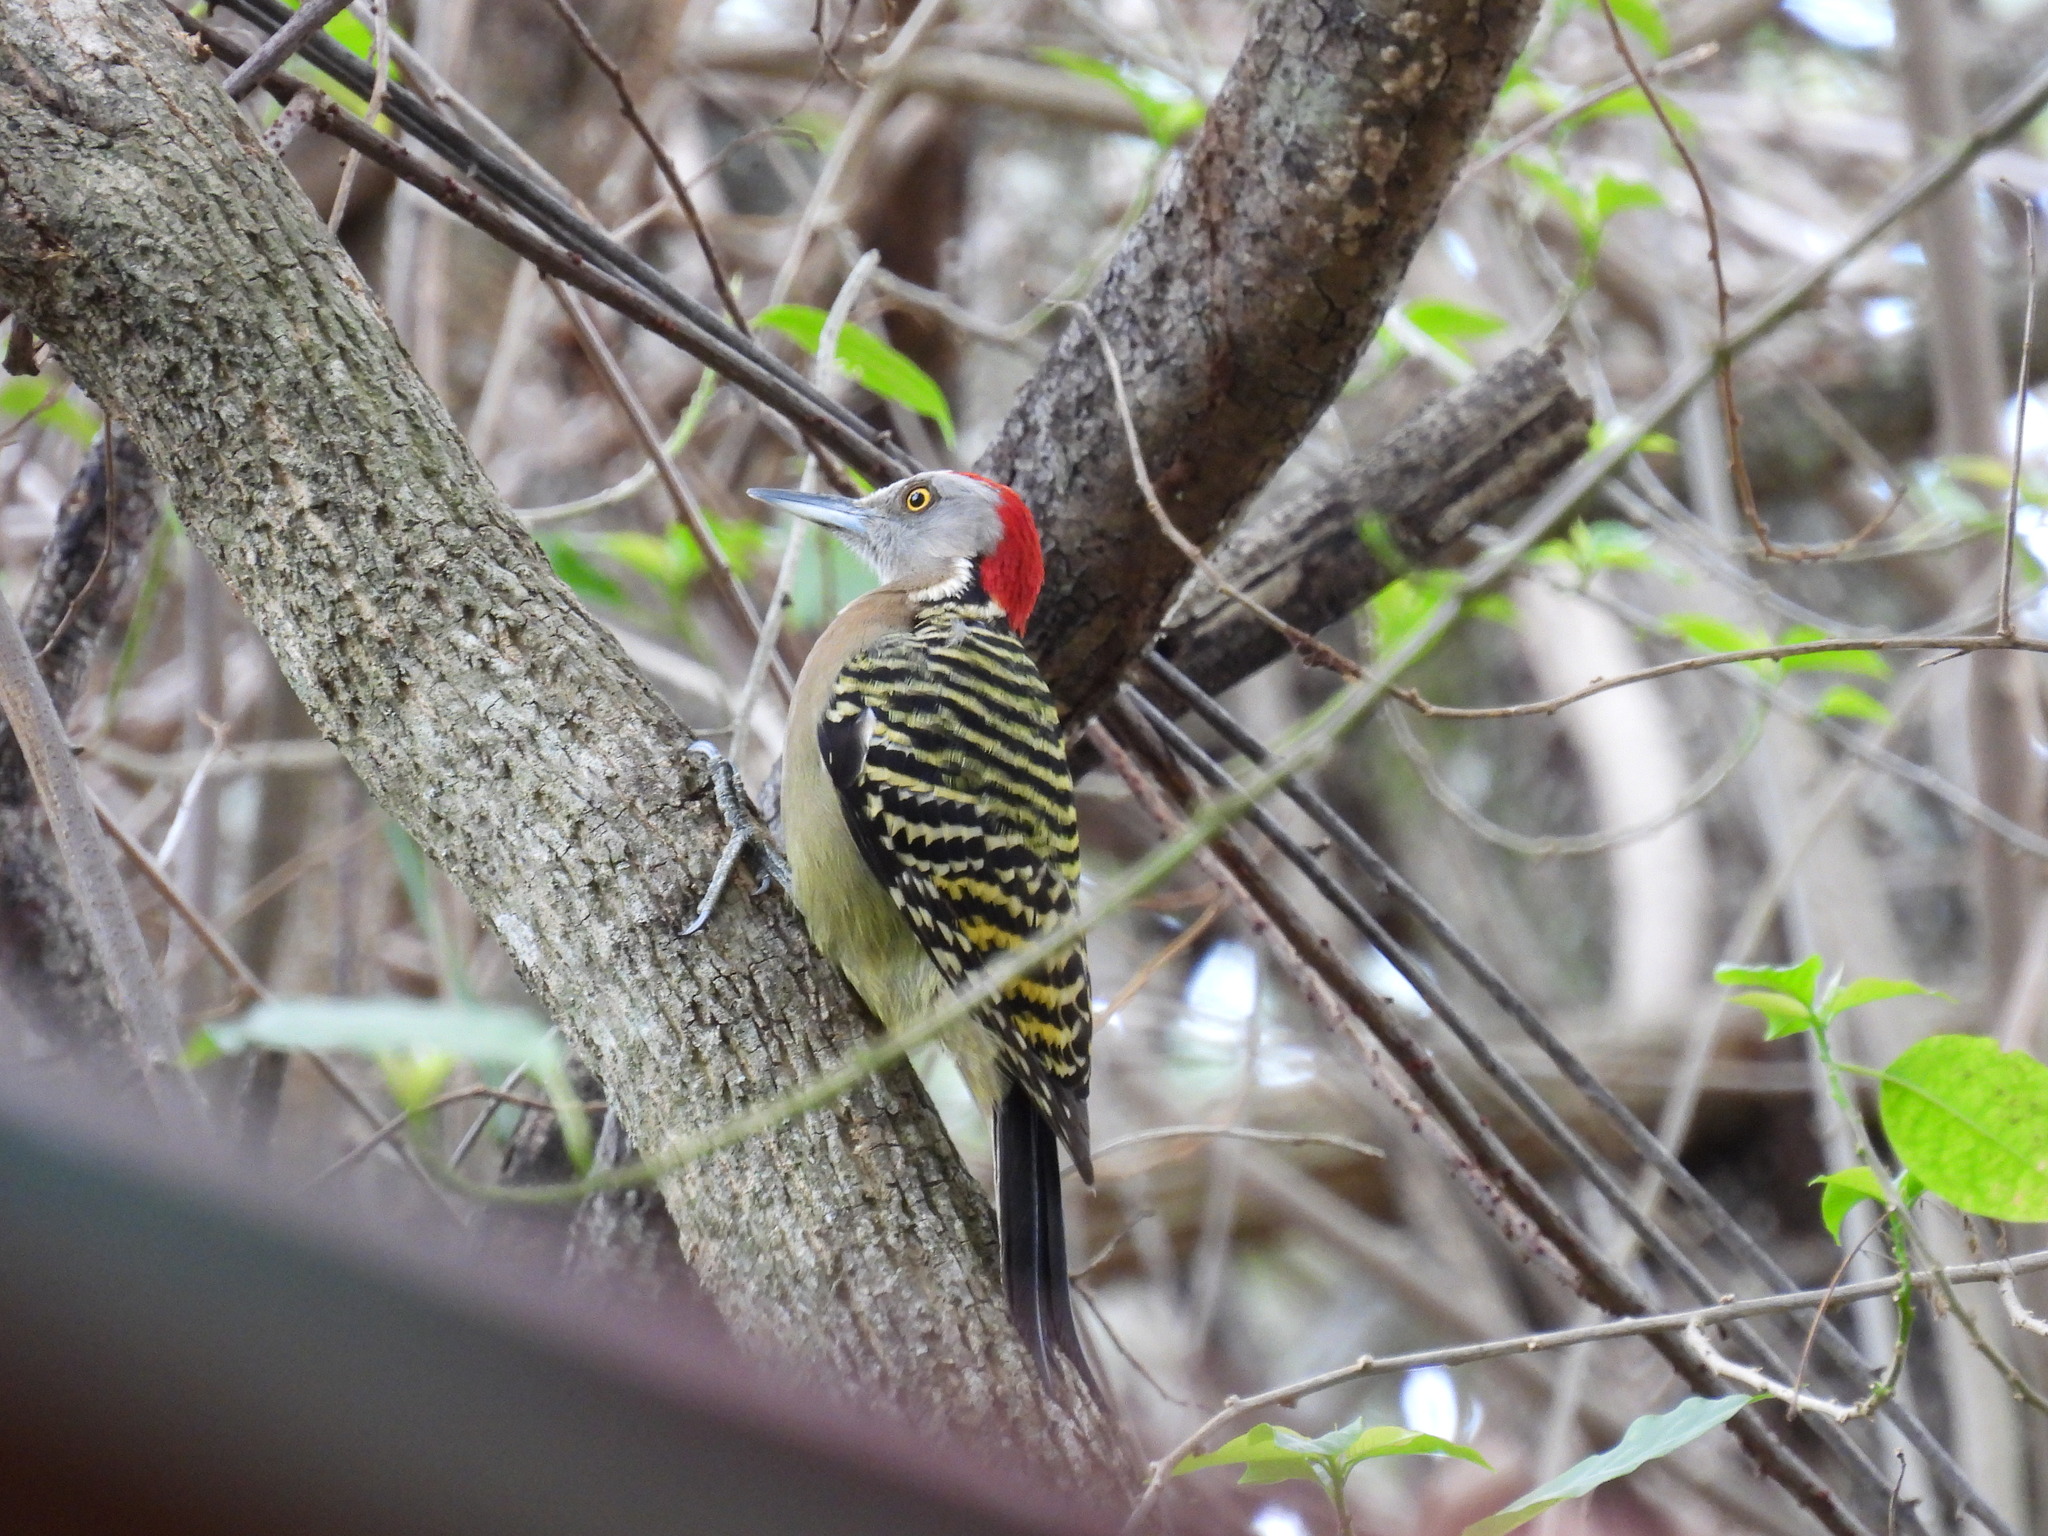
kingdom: Animalia
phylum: Chordata
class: Aves
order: Piciformes
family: Picidae
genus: Melanerpes
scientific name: Melanerpes striatus
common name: Hispaniolan woodpecker
